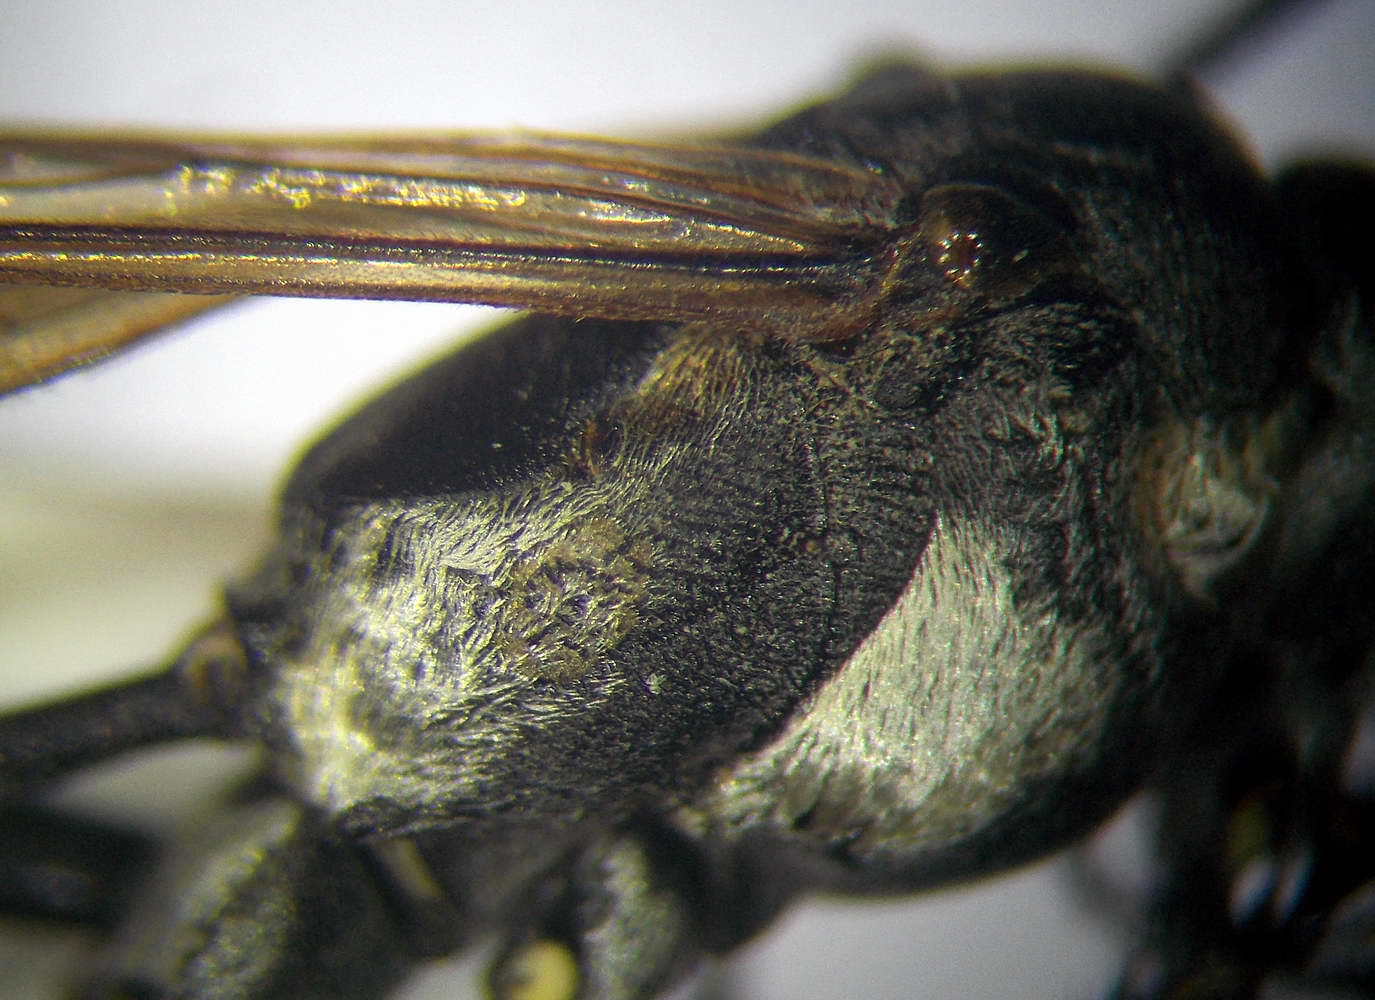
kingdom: Animalia
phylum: Arthropoda
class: Insecta
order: Hymenoptera
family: Sphecidae
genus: Ammophila
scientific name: Ammophila terminata
